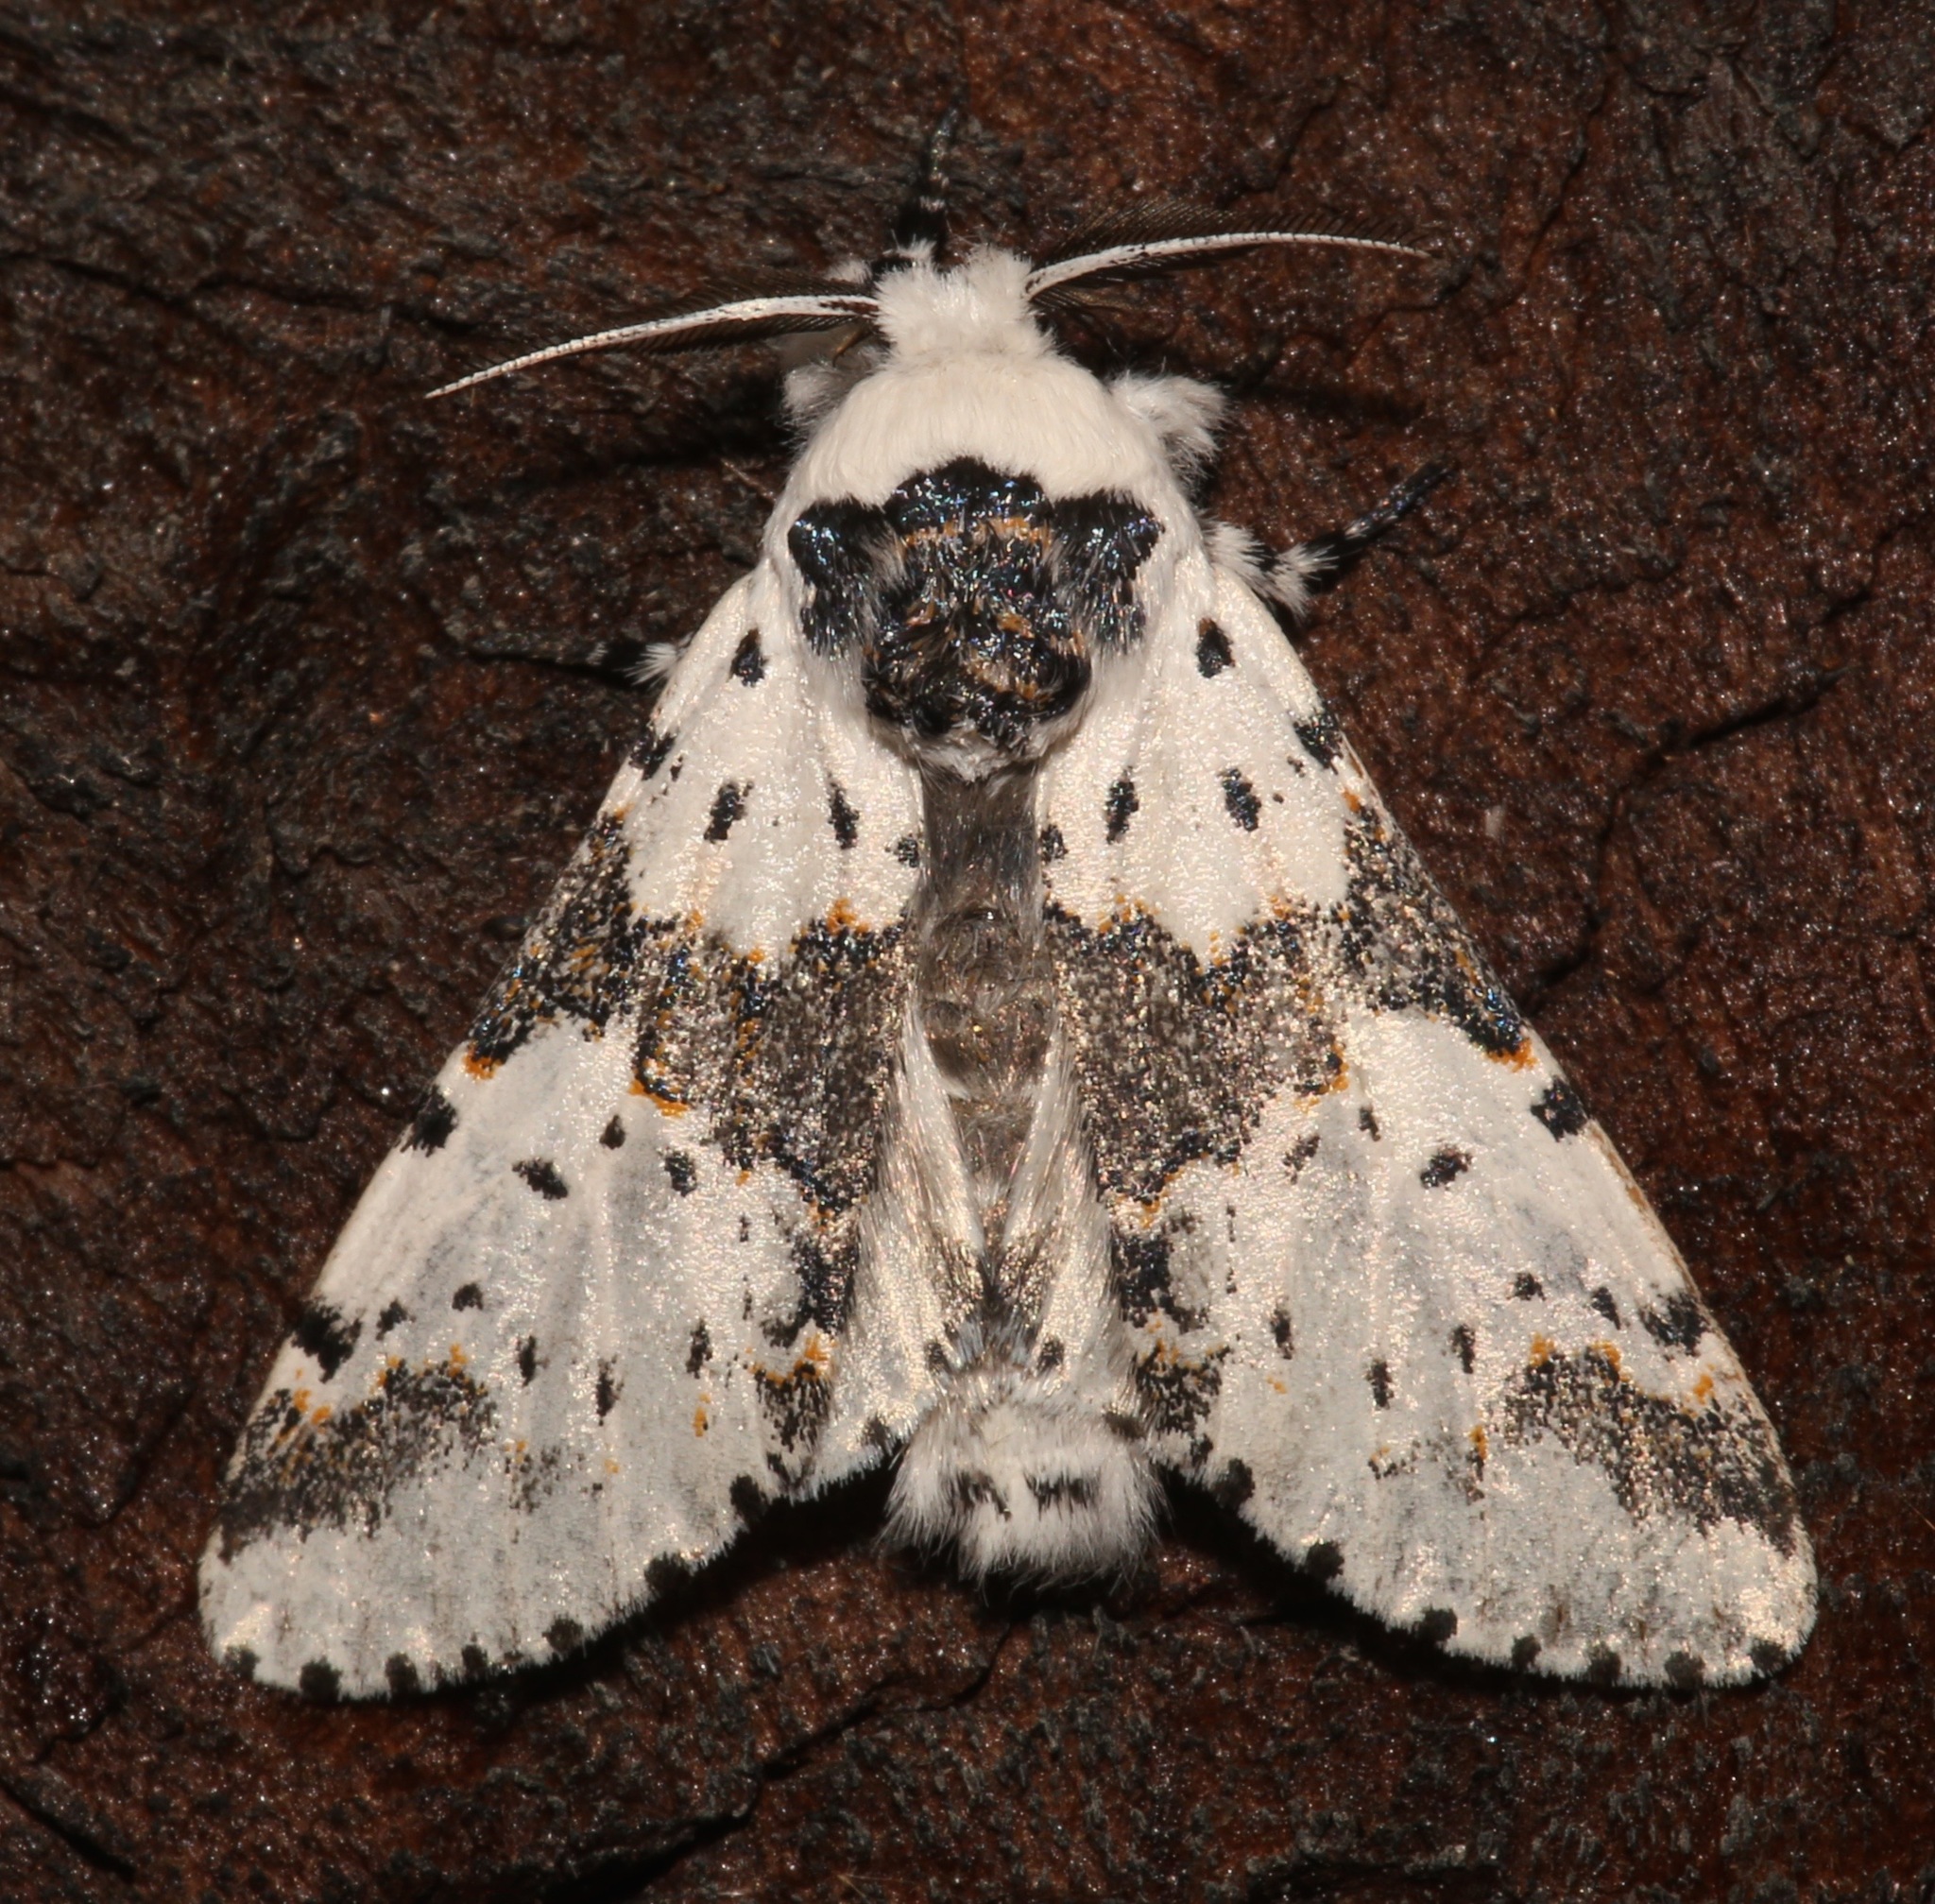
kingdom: Animalia
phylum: Arthropoda
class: Insecta
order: Lepidoptera
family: Notodontidae
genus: Furcula
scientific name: Furcula borealis
